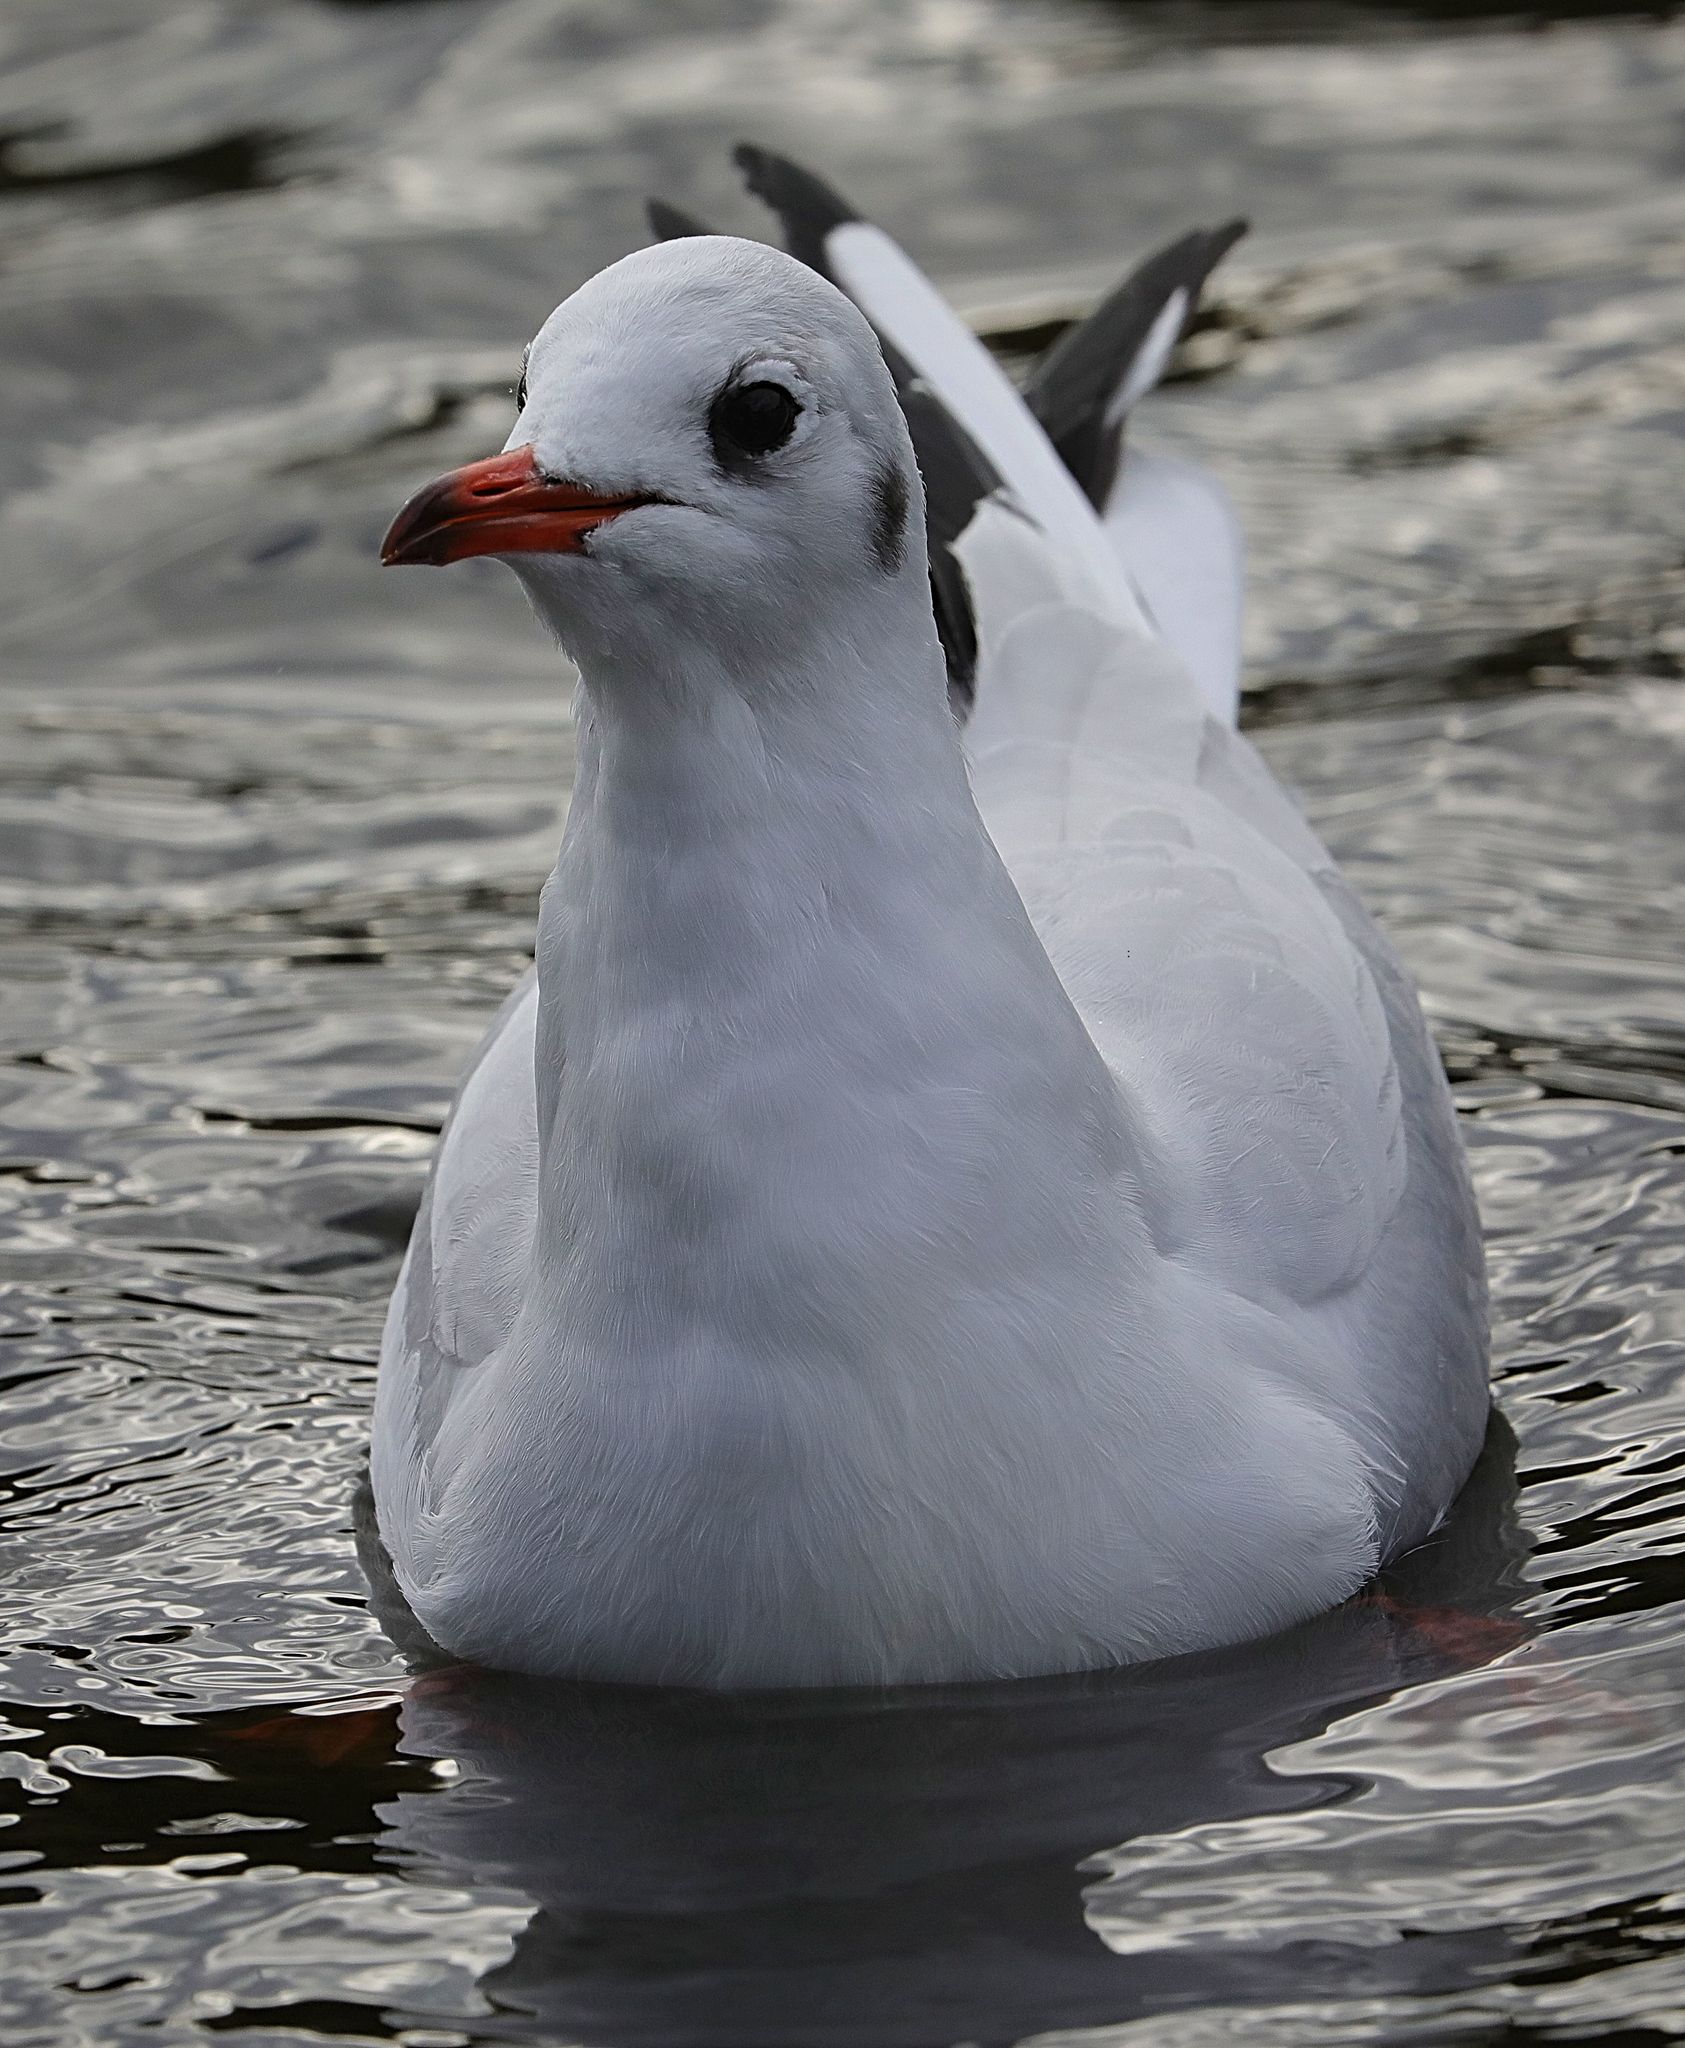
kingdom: Animalia
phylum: Chordata
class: Aves
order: Charadriiformes
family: Laridae
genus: Chroicocephalus
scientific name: Chroicocephalus ridibundus
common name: Black-headed gull
